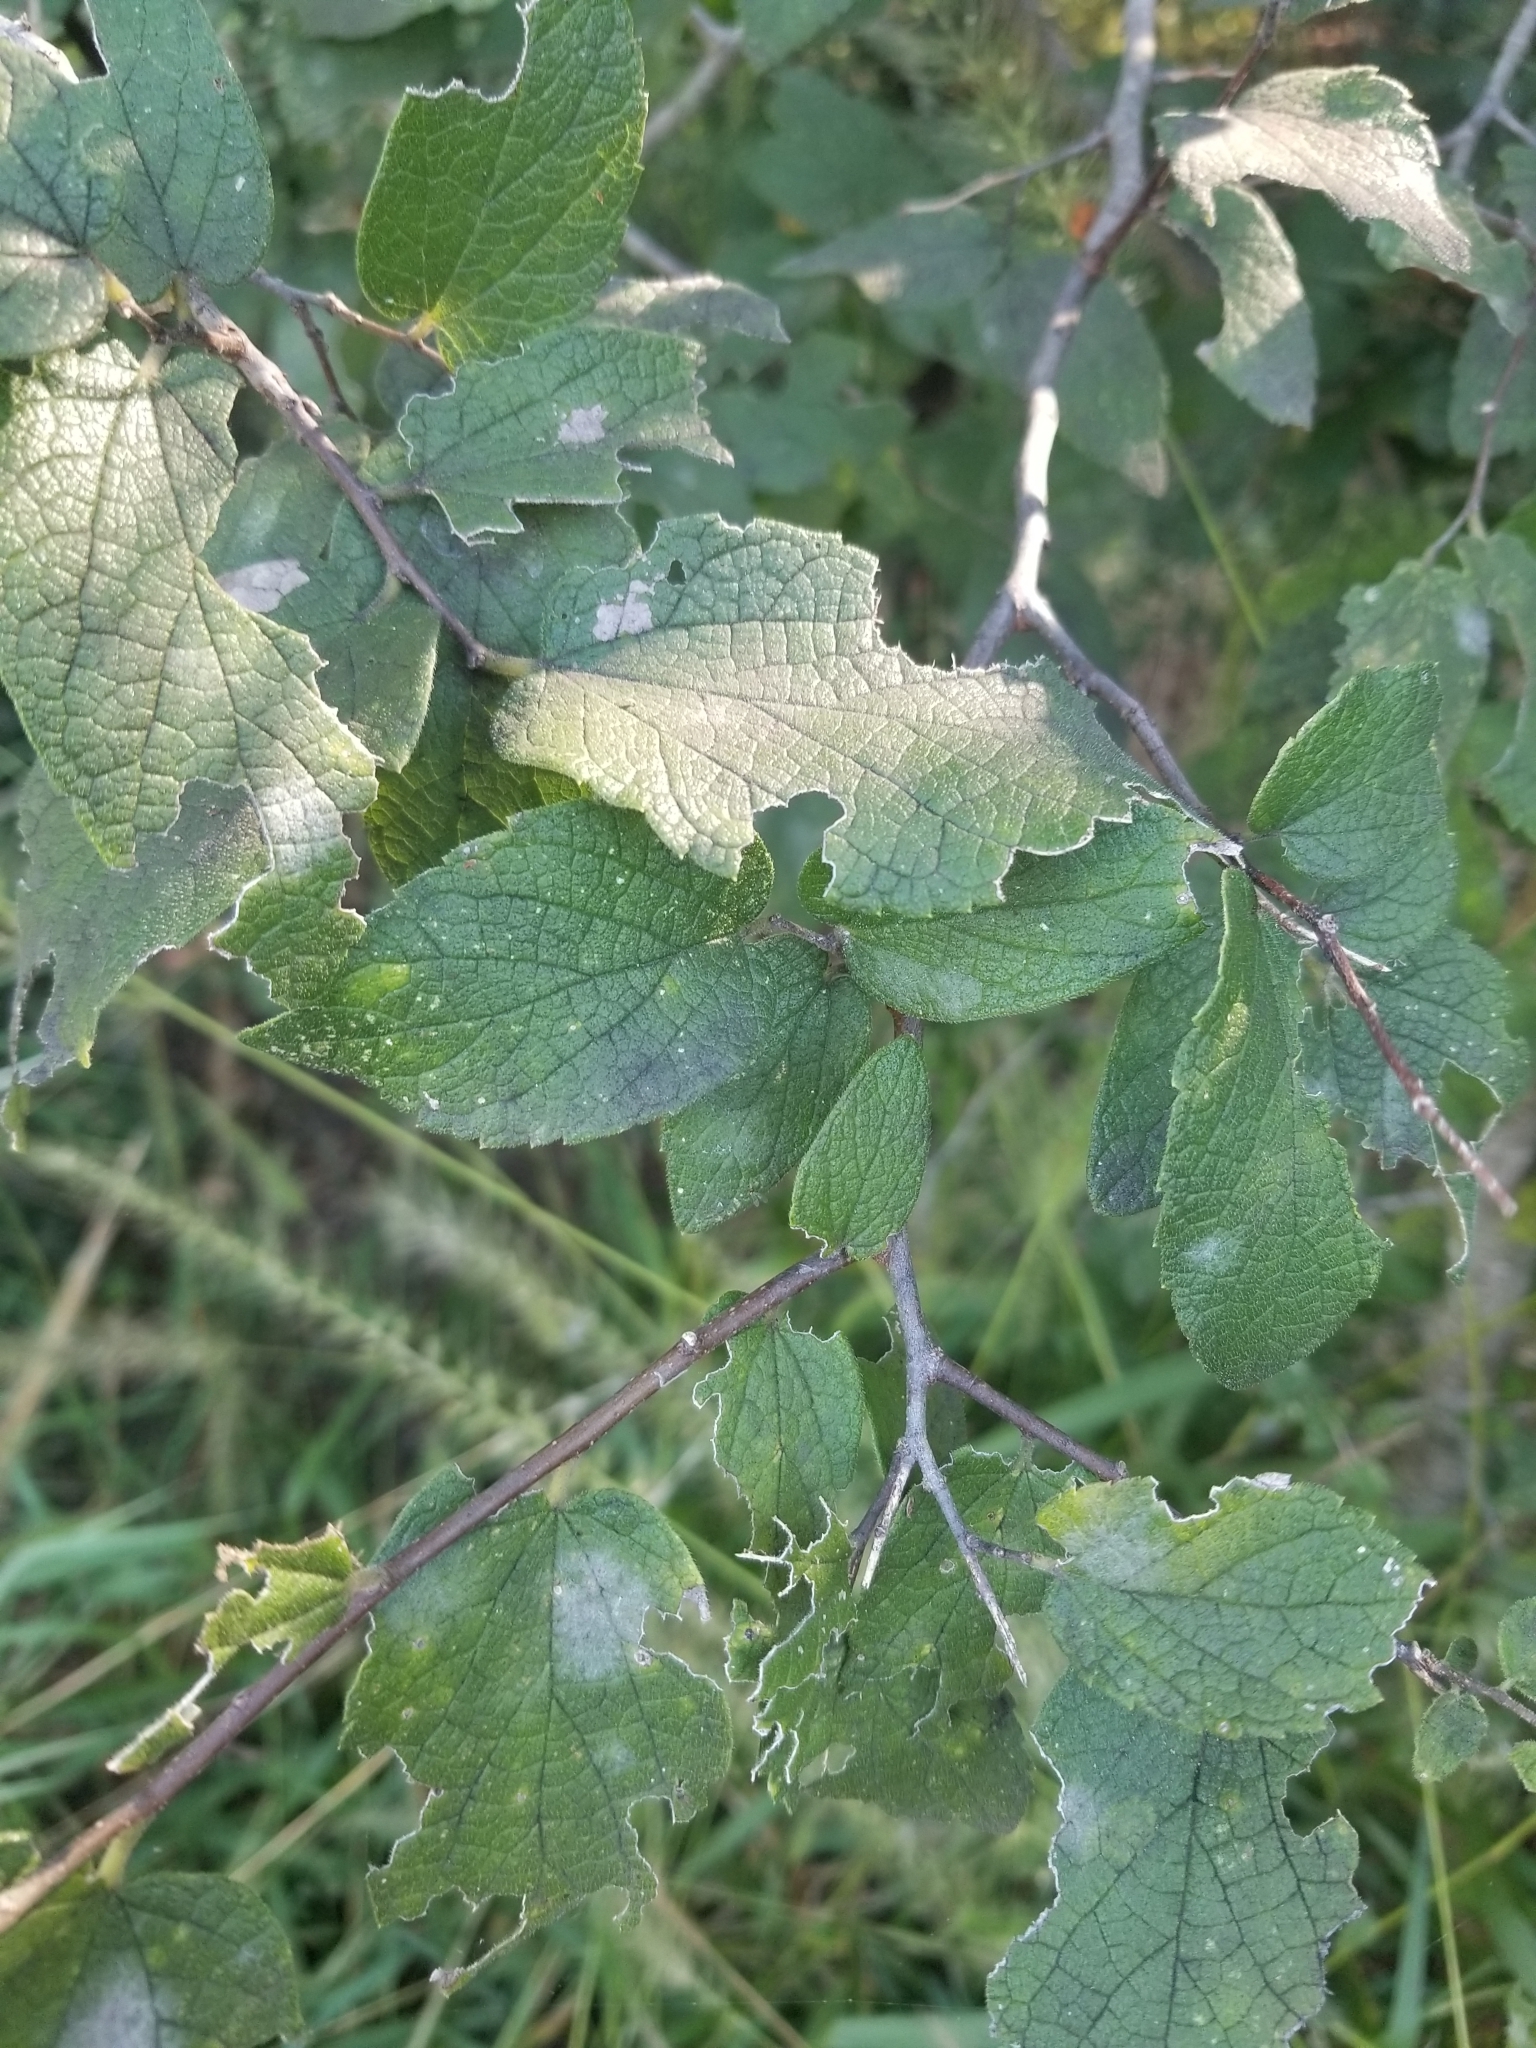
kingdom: Plantae
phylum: Tracheophyta
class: Magnoliopsida
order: Rosales
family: Cannabaceae
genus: Celtis
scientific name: Celtis reticulata
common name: Netleaf hackberry
